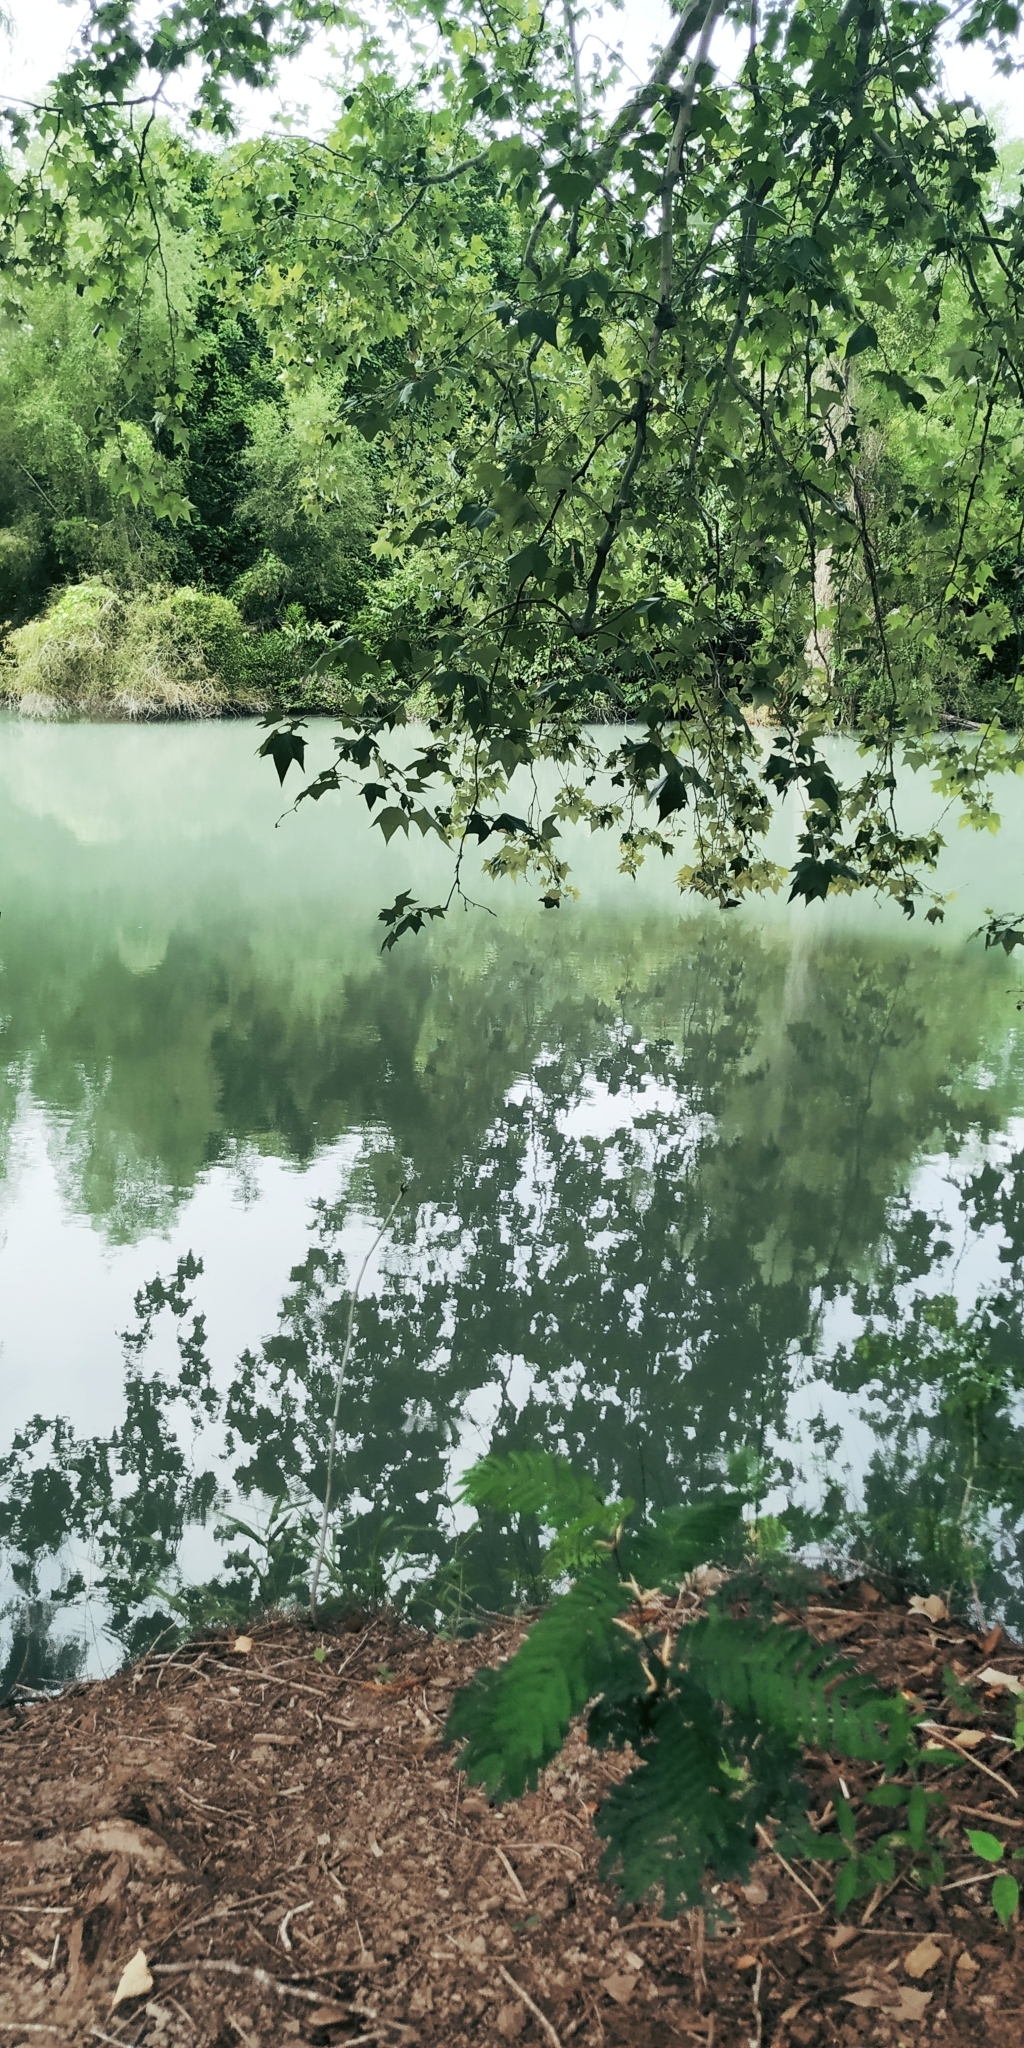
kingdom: Plantae
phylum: Tracheophyta
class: Magnoliopsida
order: Proteales
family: Platanaceae
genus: Platanus
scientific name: Platanus rzedowskii
